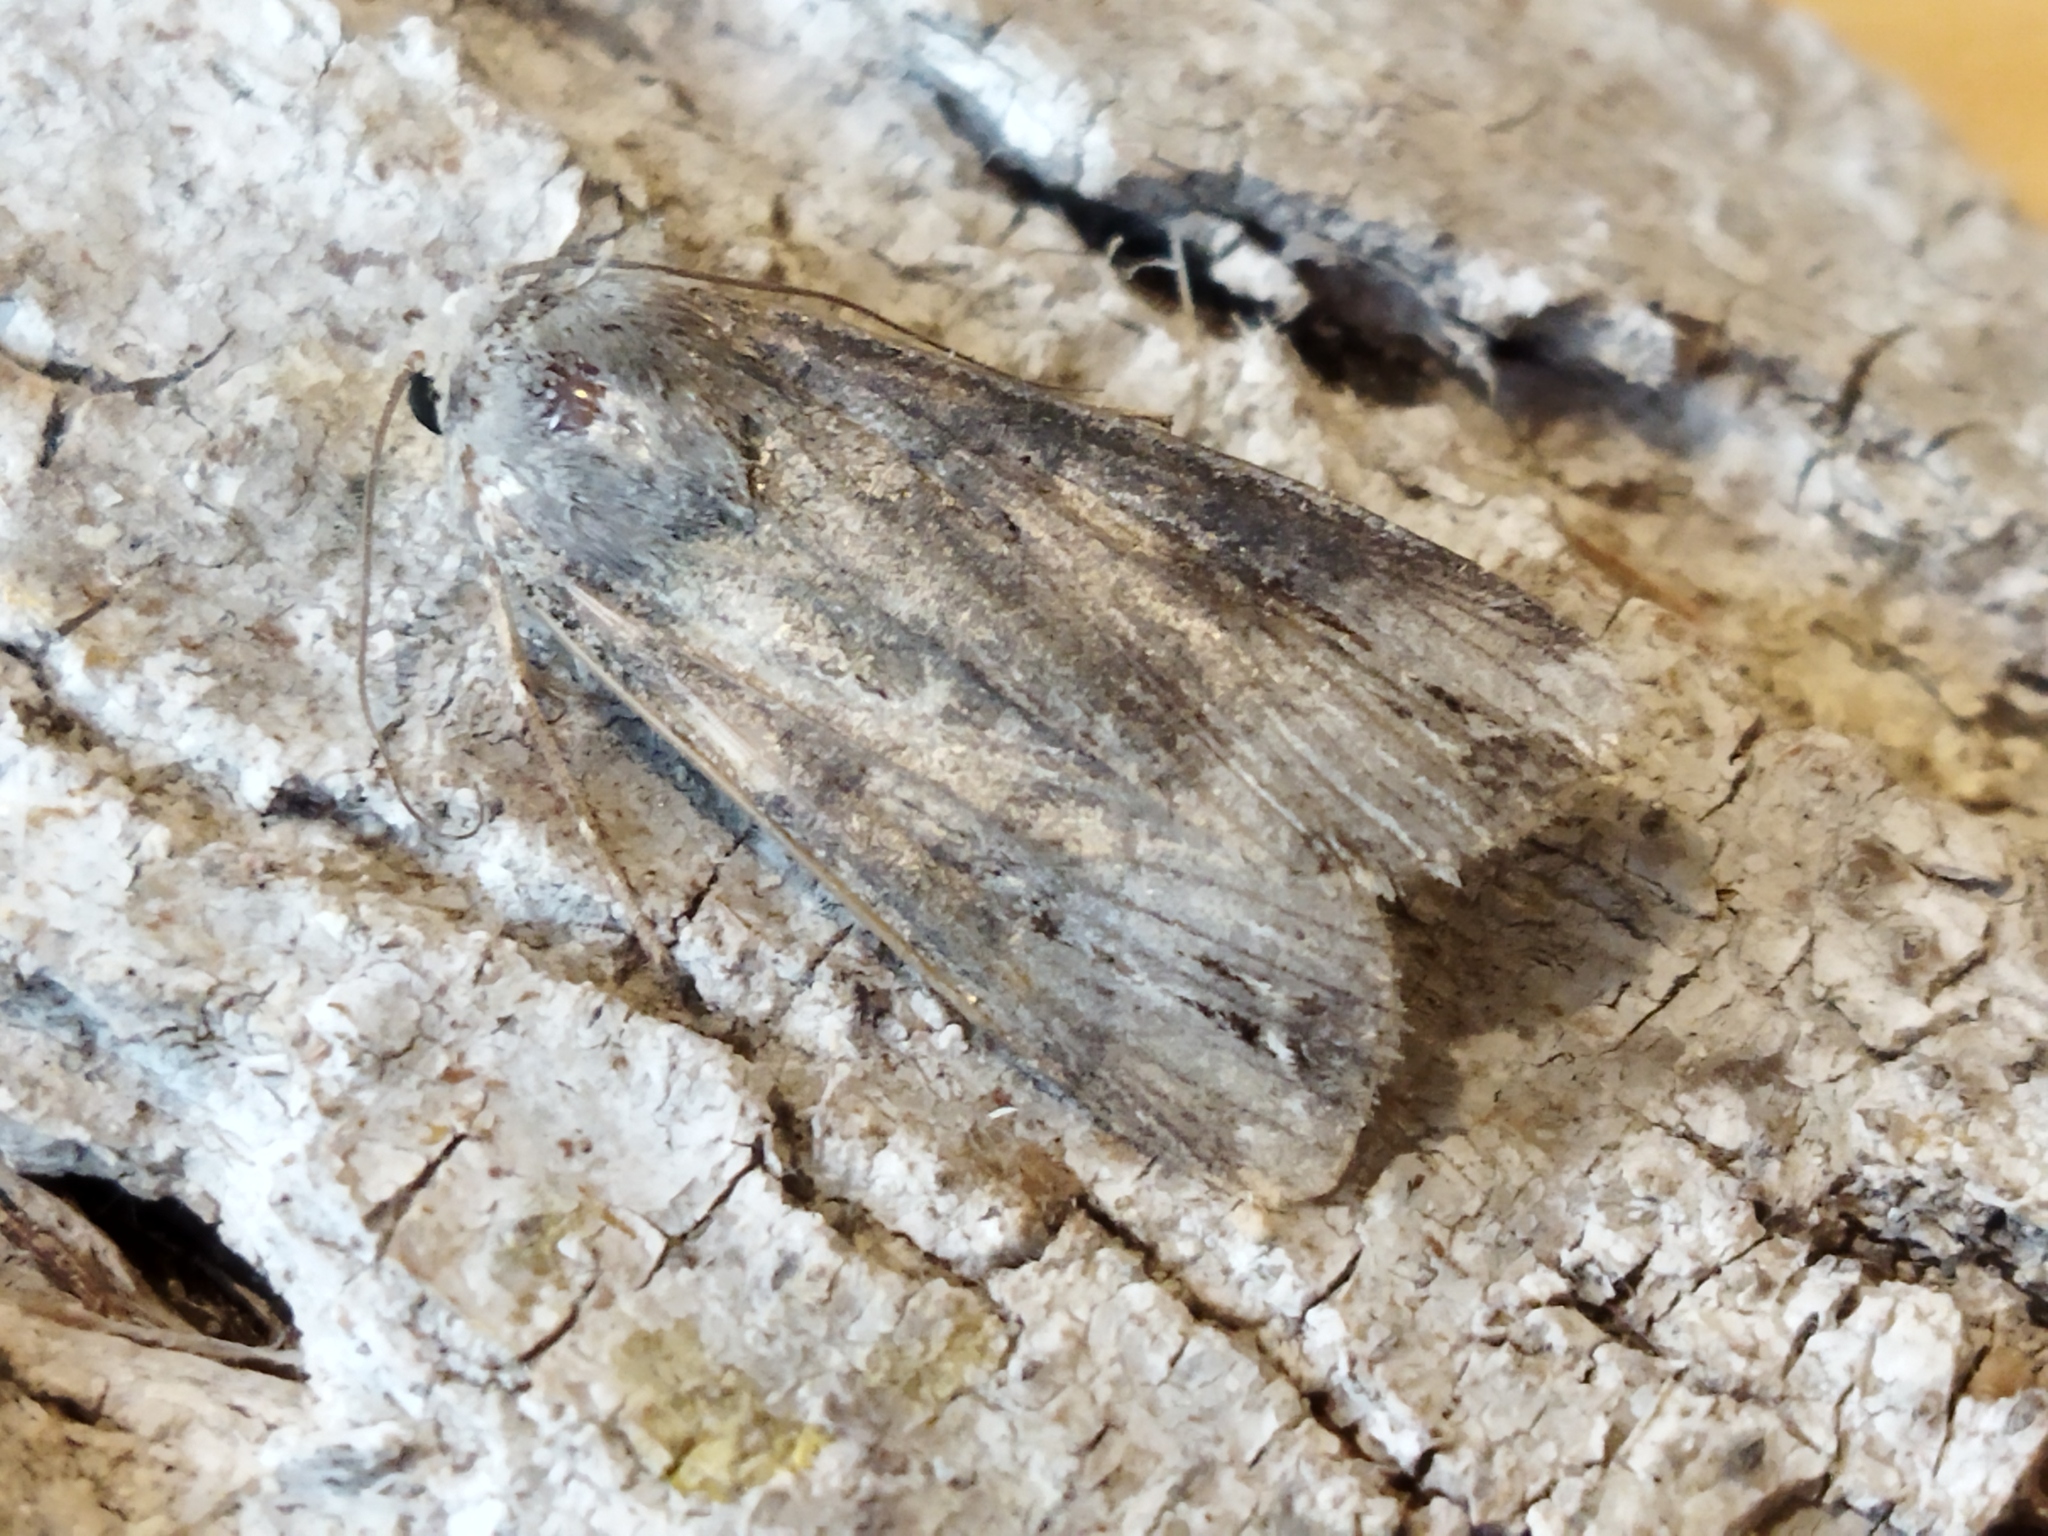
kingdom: Animalia
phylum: Arthropoda
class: Insecta
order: Lepidoptera
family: Noctuidae
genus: Agrotis
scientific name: Agrotis ipsilon
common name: Dark sword-grass
